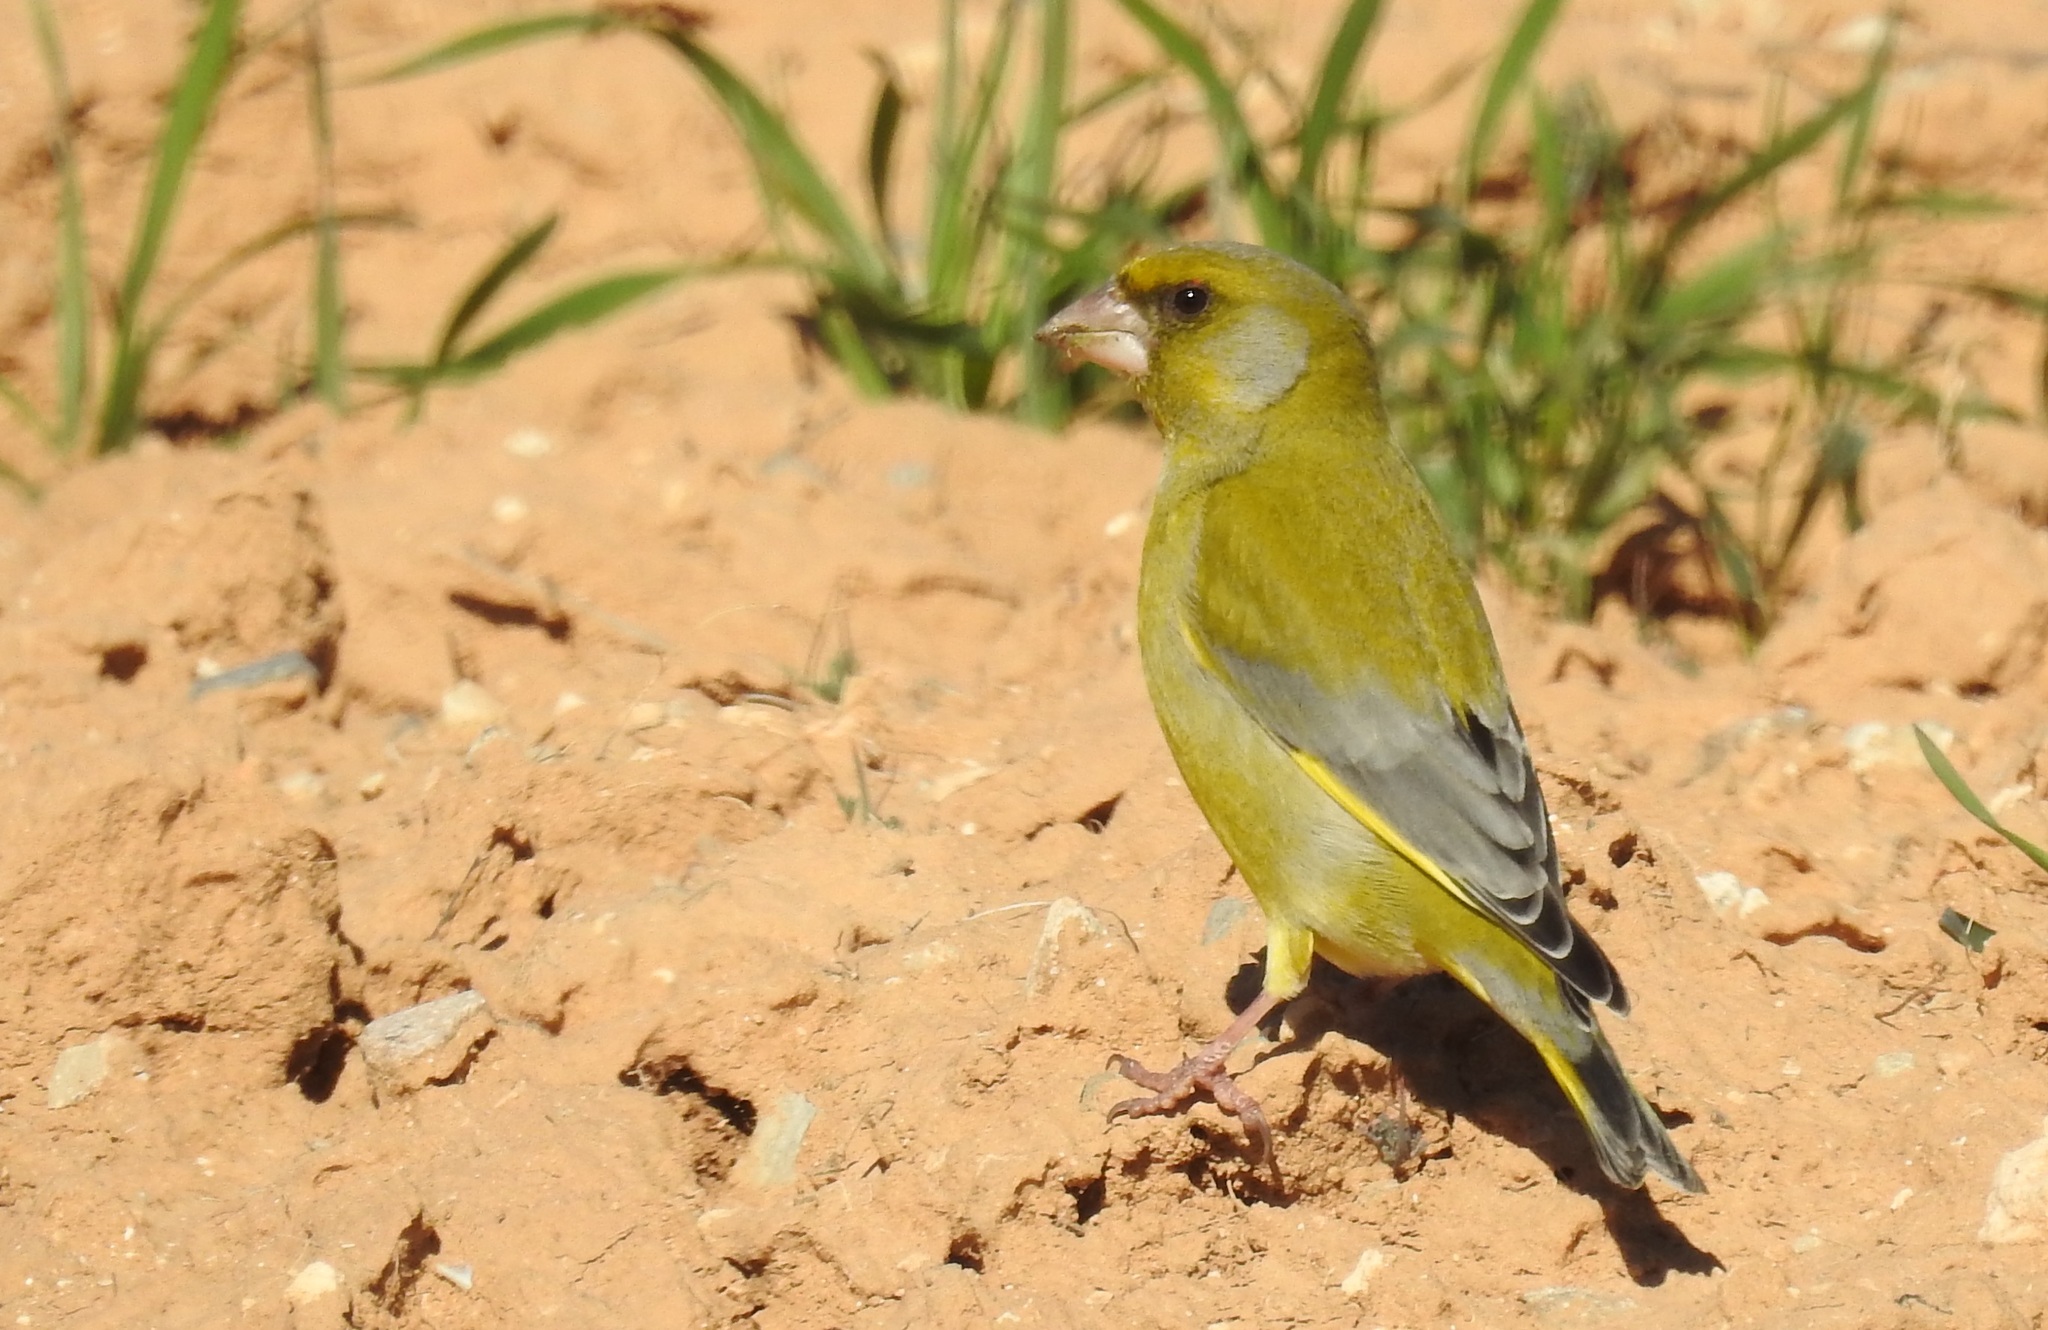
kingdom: Plantae
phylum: Tracheophyta
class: Liliopsida
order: Poales
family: Poaceae
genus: Chloris
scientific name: Chloris chloris
